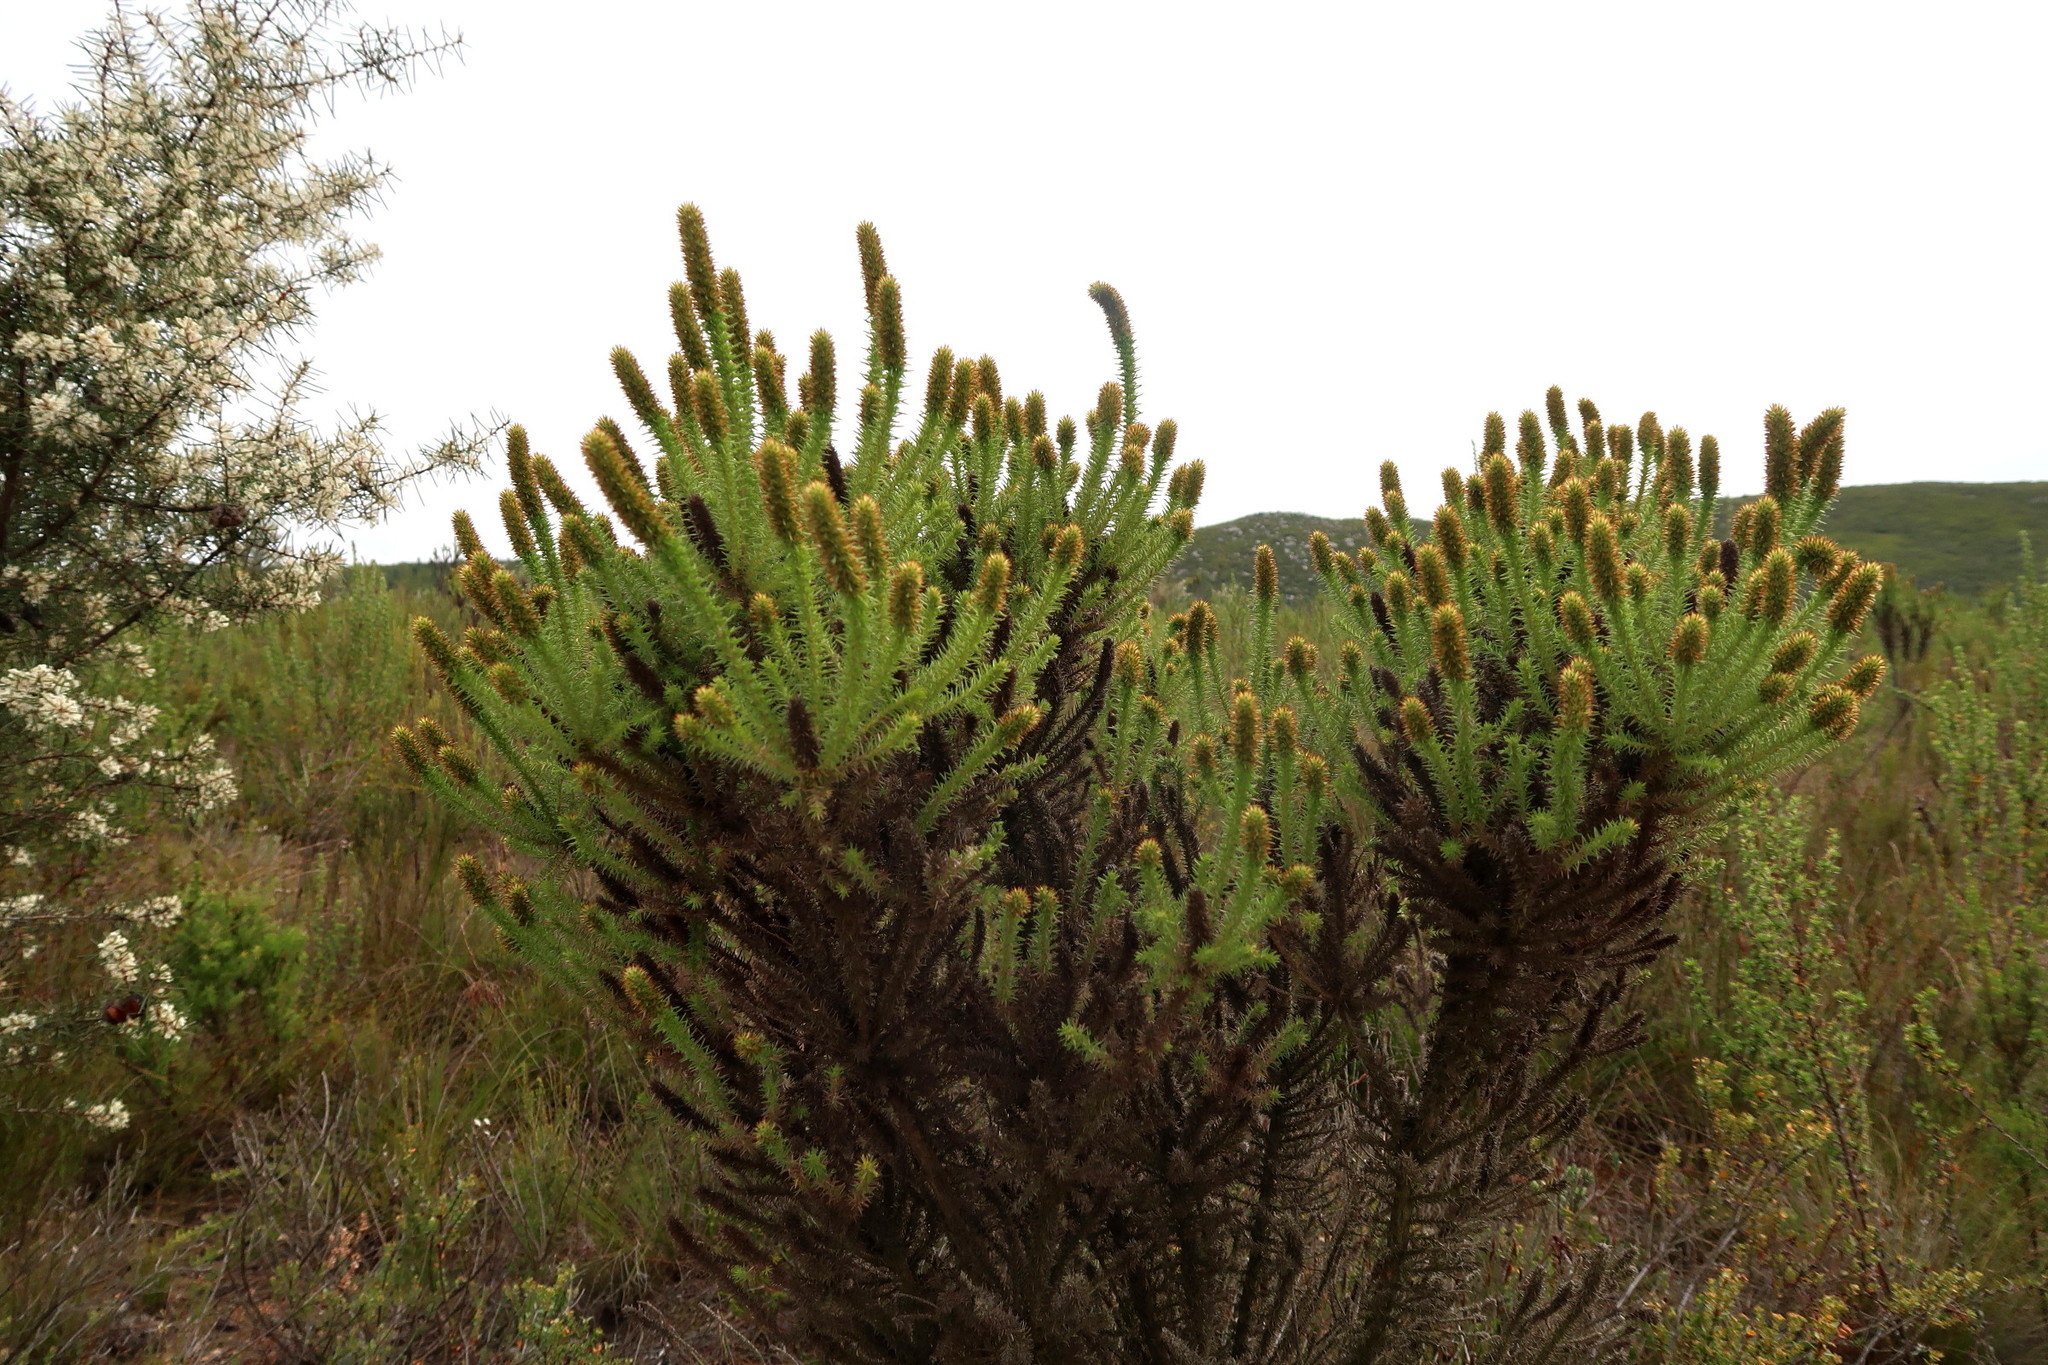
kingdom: Plantae
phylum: Tracheophyta
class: Magnoliopsida
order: Asterales
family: Asteraceae
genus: Stoebe
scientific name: Stoebe alopecuroides
